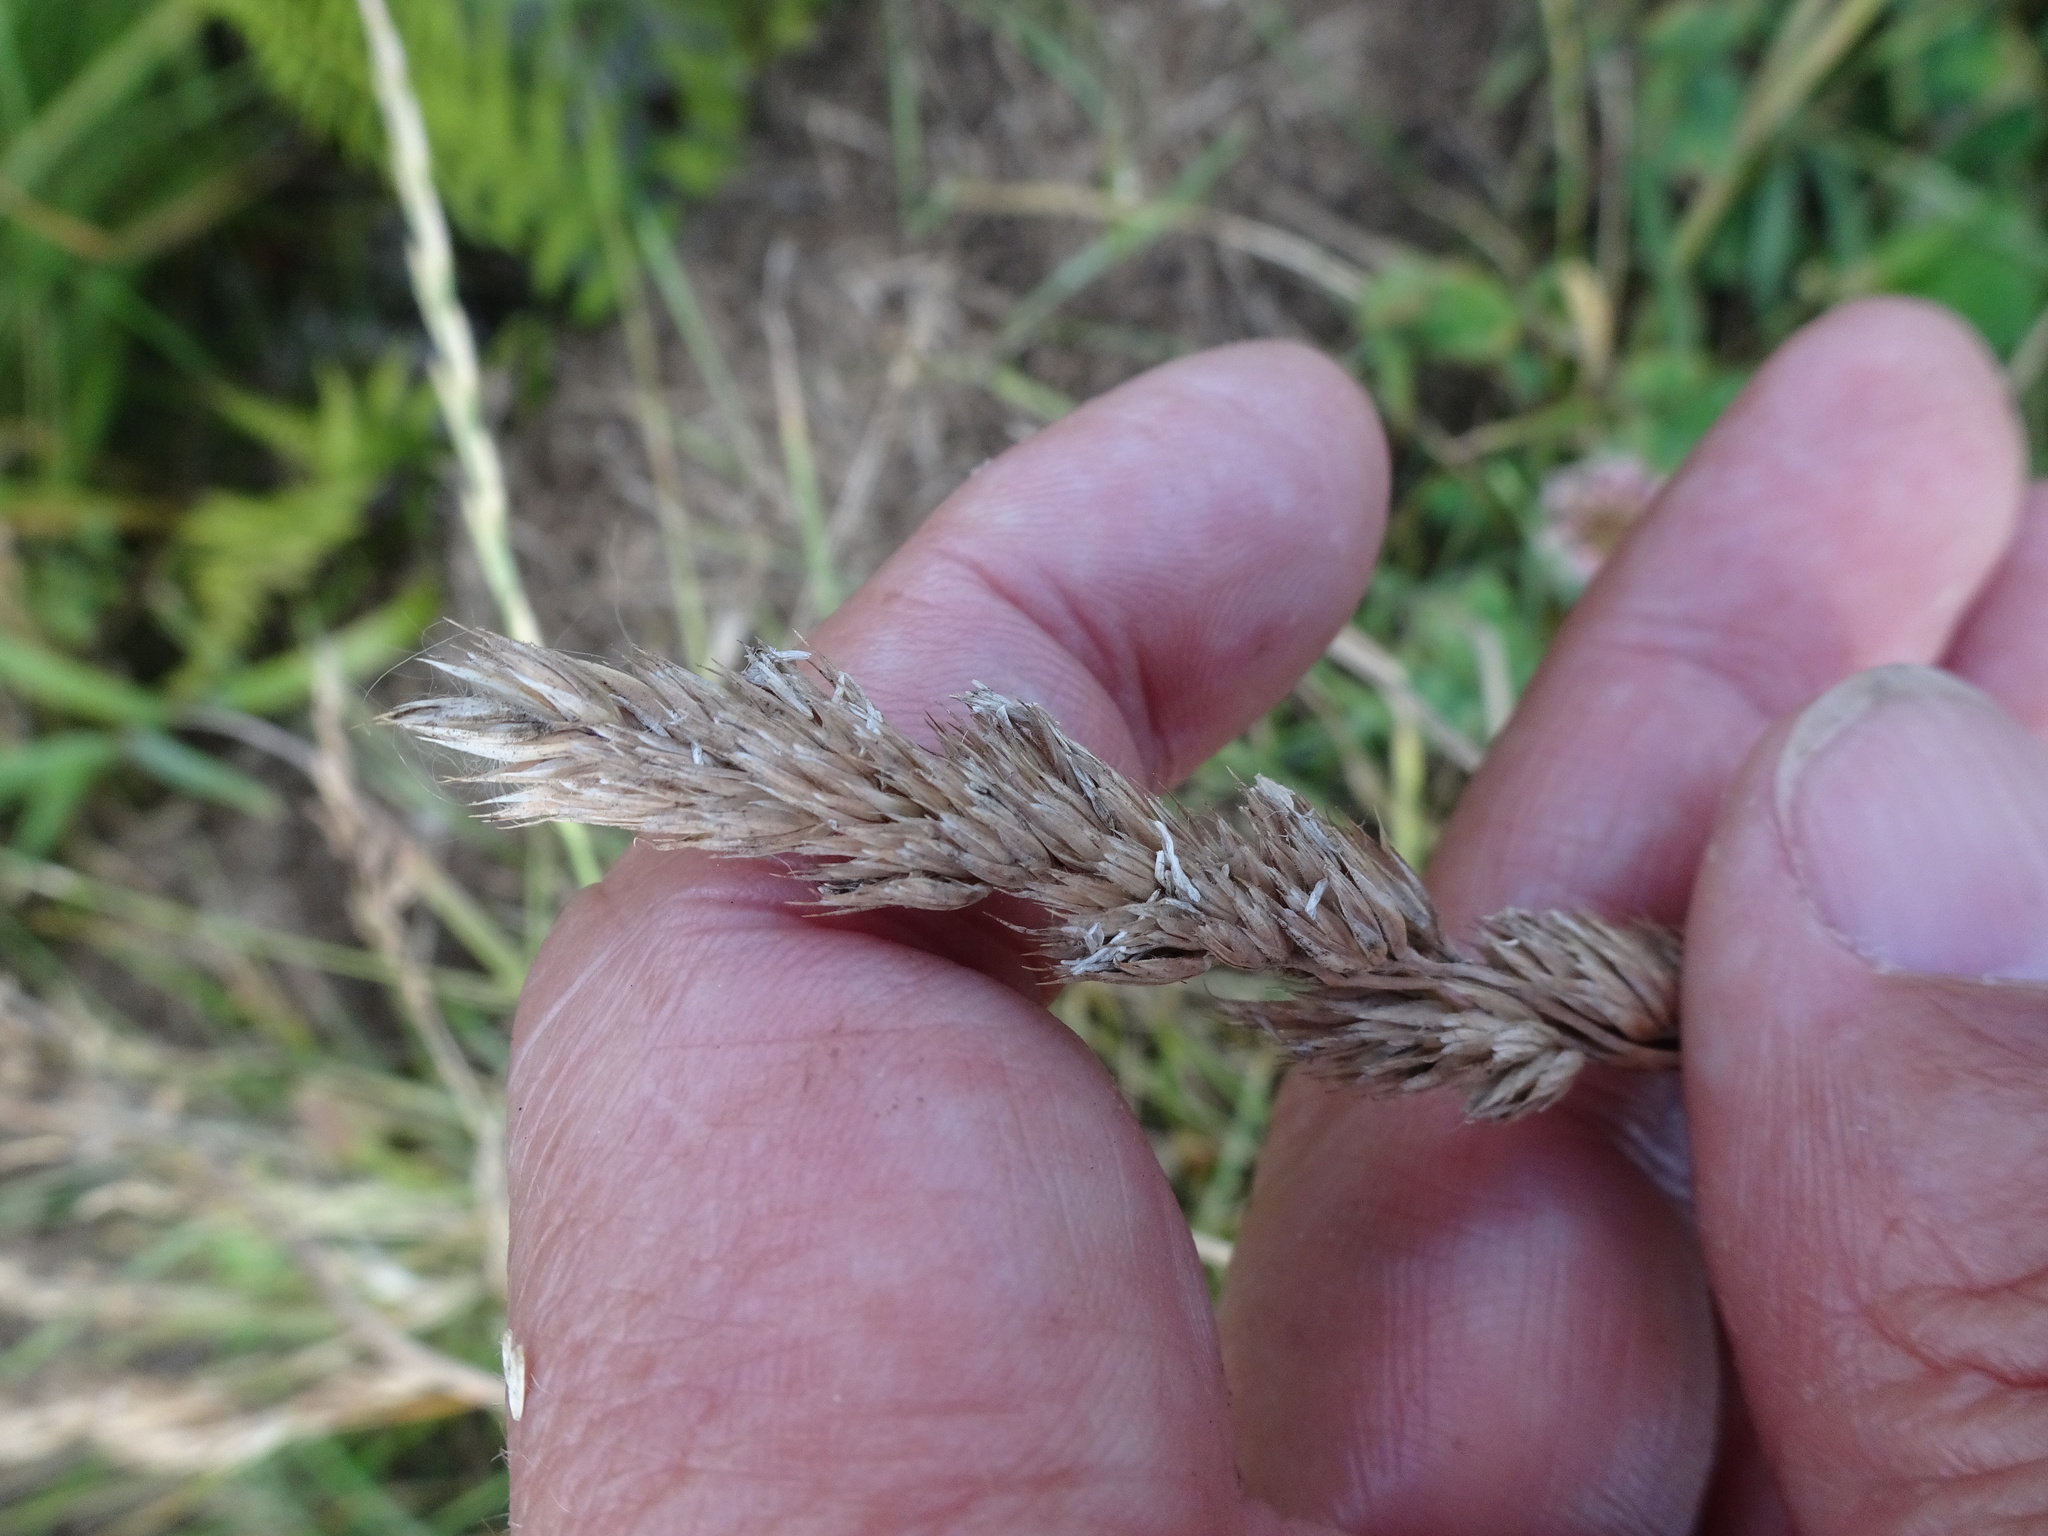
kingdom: Plantae
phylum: Tracheophyta
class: Liliopsida
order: Poales
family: Poaceae
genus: Dactylis
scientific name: Dactylis glomerata
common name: Orchardgrass
